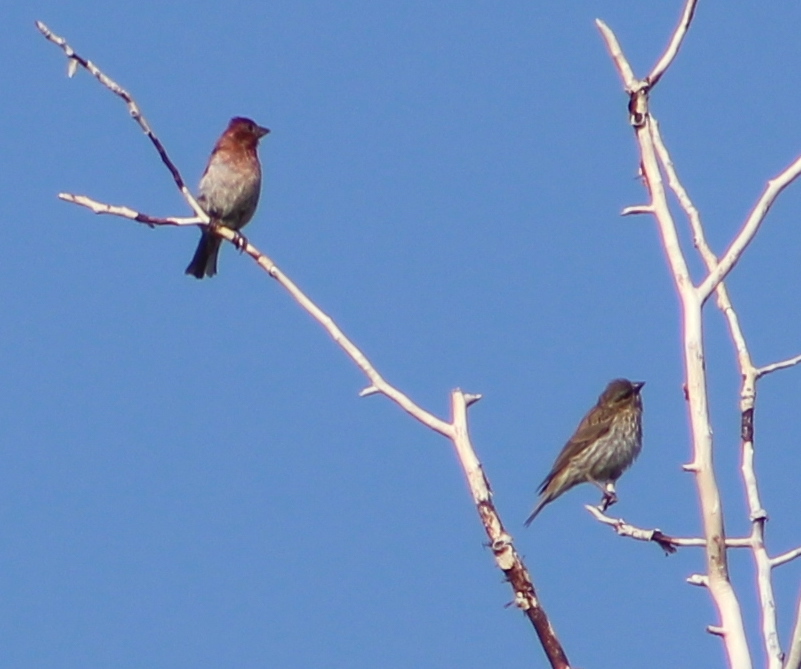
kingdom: Animalia
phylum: Chordata
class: Aves
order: Passeriformes
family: Fringillidae
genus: Haemorhous
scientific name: Haemorhous cassinii
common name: Cassin's finch
